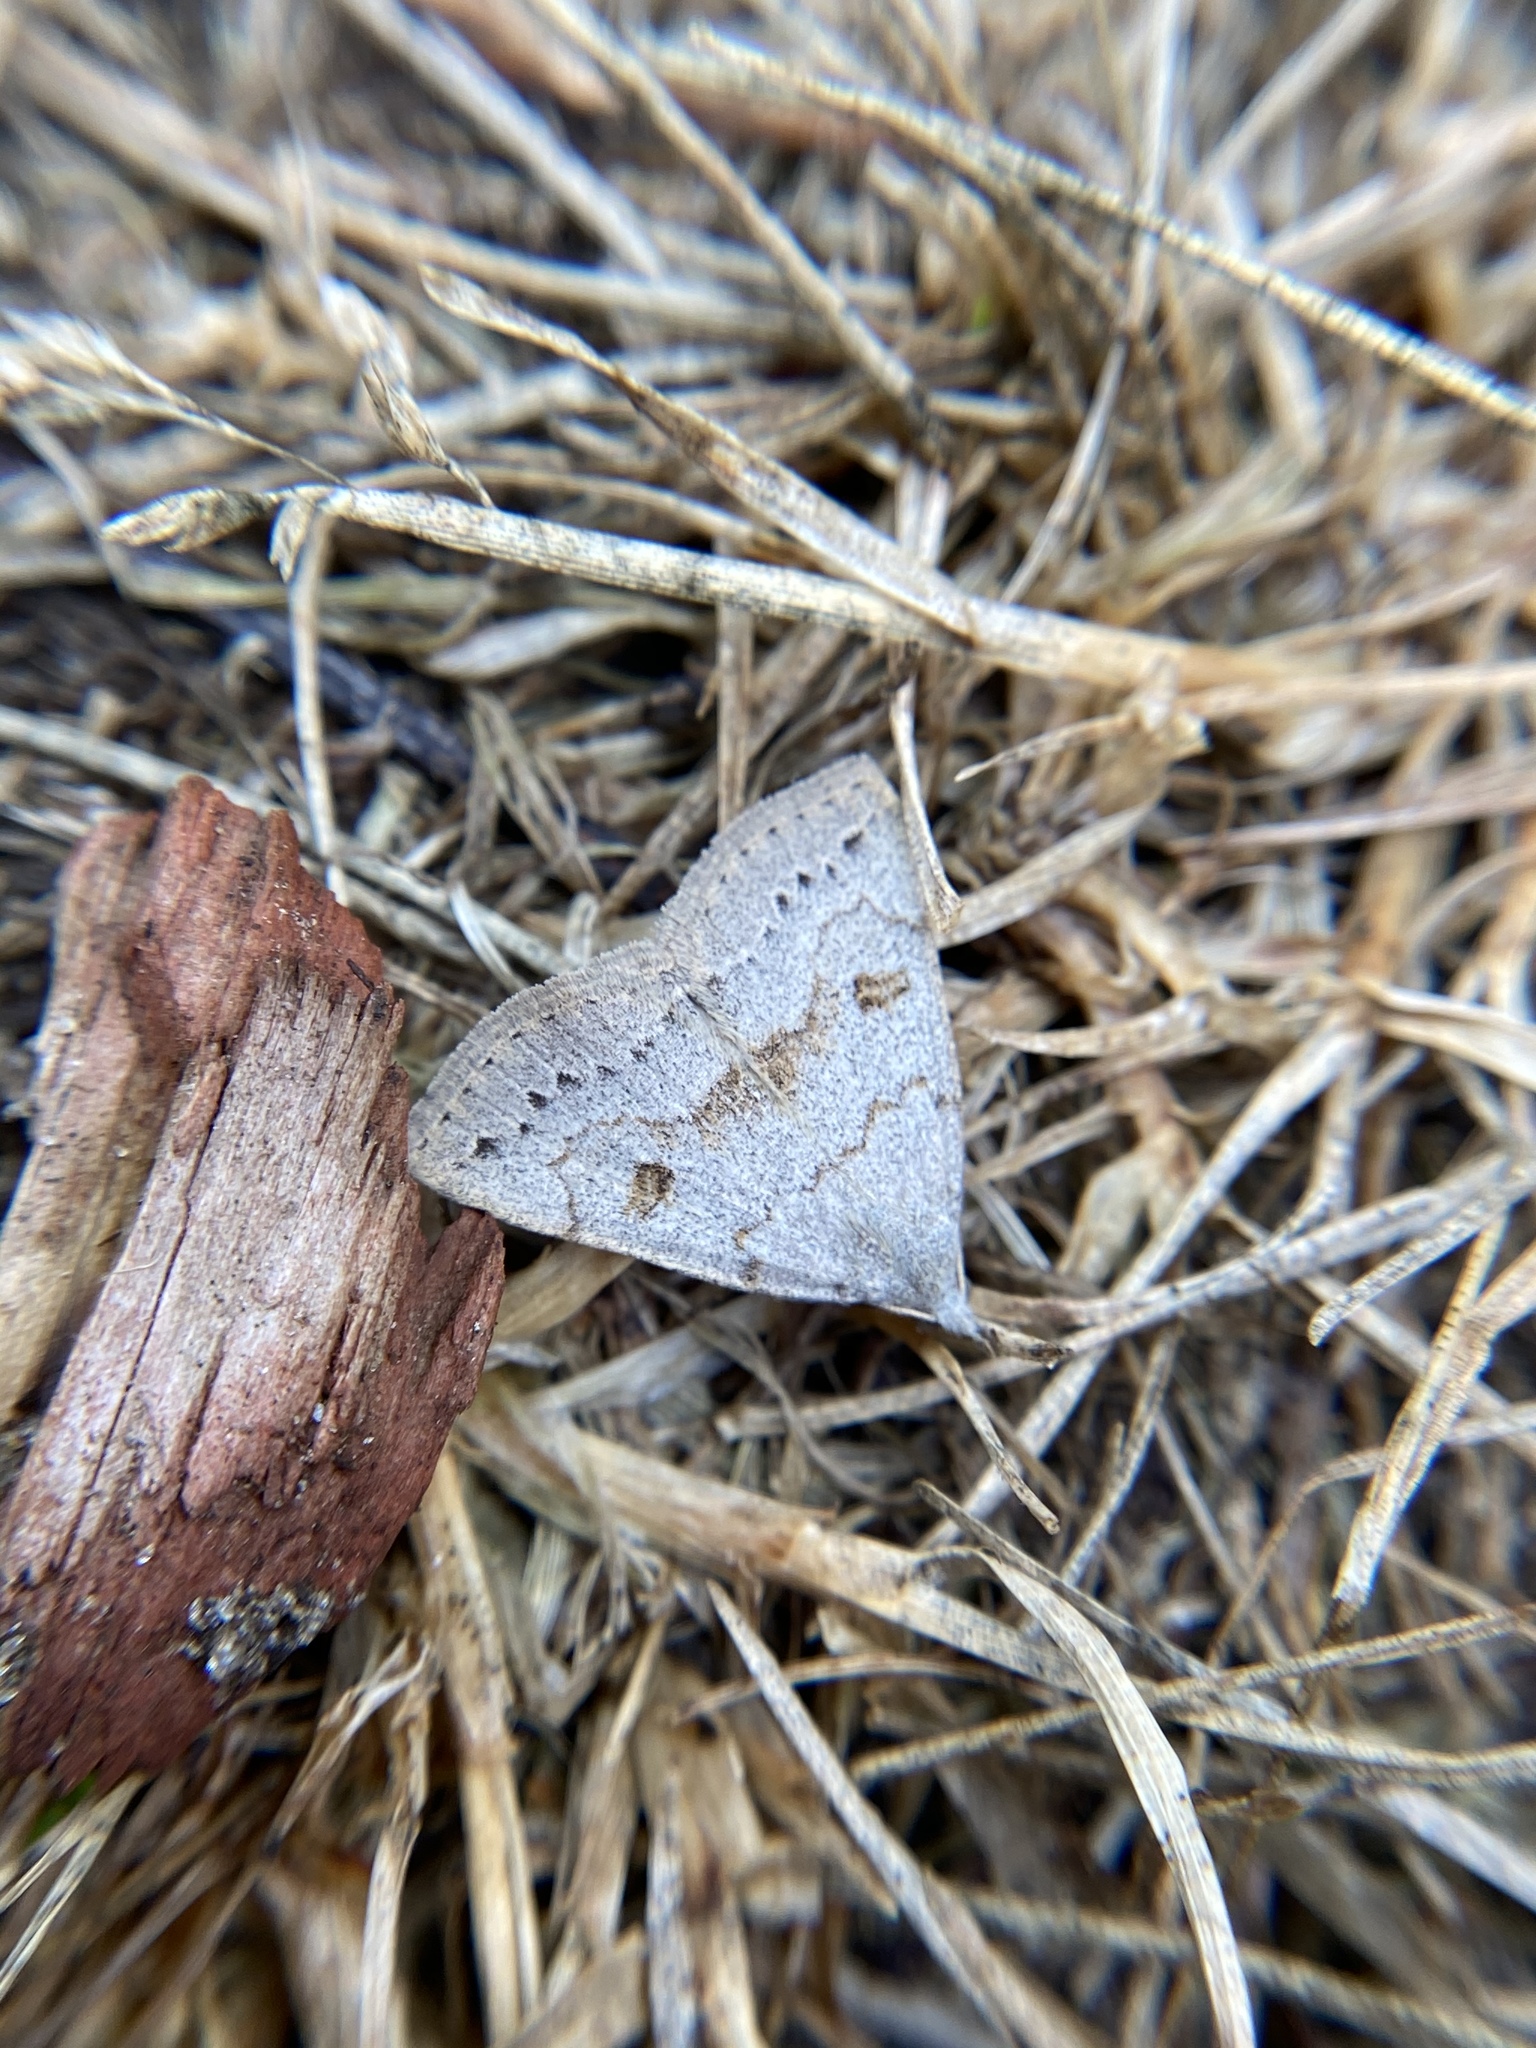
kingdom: Animalia
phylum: Arthropoda
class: Insecta
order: Lepidoptera
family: Erebidae
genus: Macrochilo
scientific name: Macrochilo morbidalis
